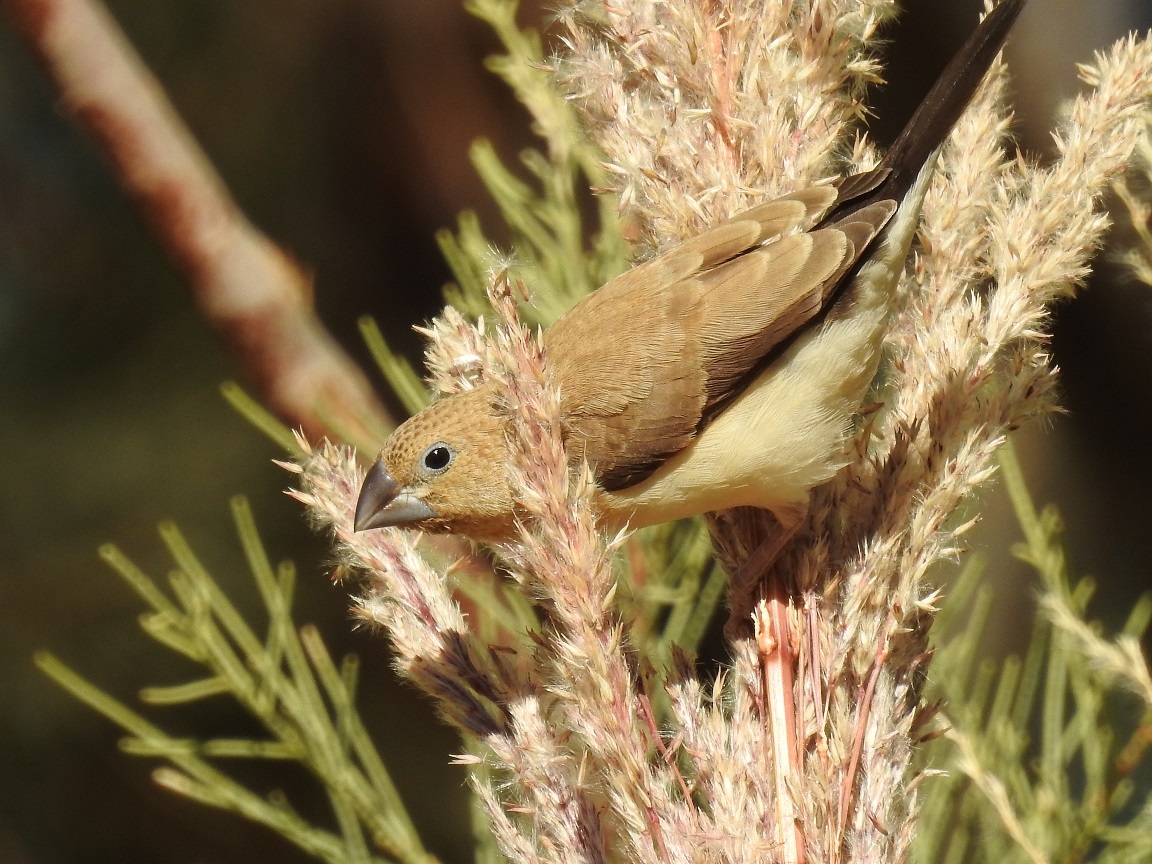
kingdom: Animalia
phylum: Chordata
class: Aves
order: Passeriformes
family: Estrildidae
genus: Euodice
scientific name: Euodice cantans
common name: African silverbill
